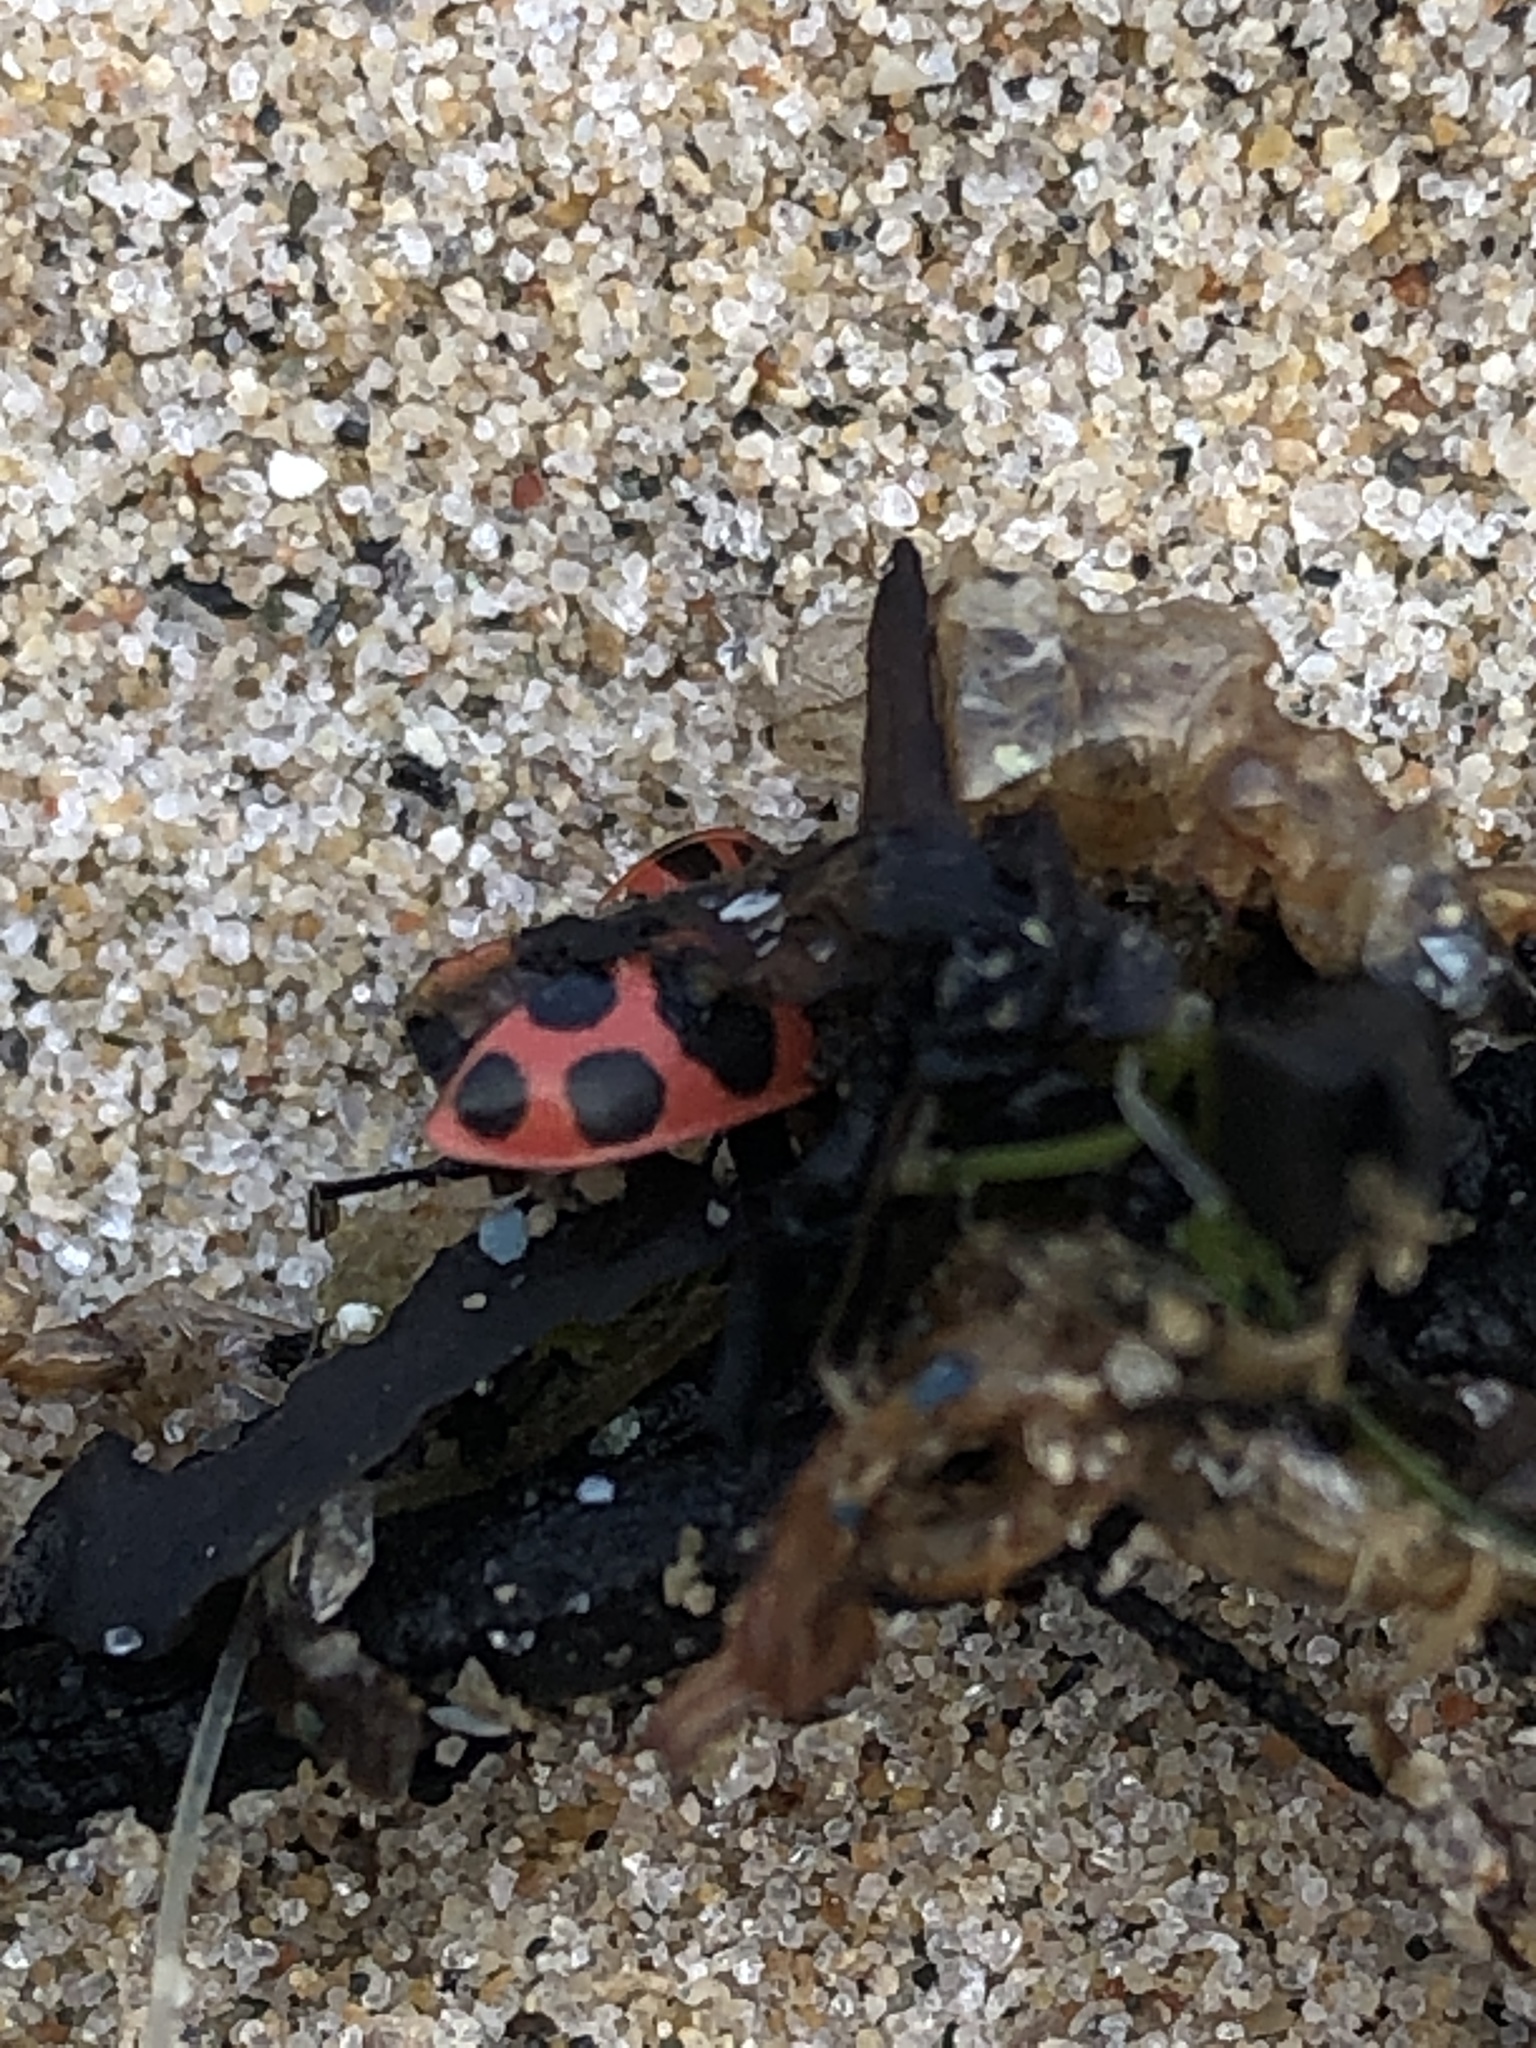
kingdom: Animalia
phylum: Arthropoda
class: Insecta
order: Coleoptera
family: Coccinellidae
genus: Coleomegilla
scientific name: Coleomegilla maculata
